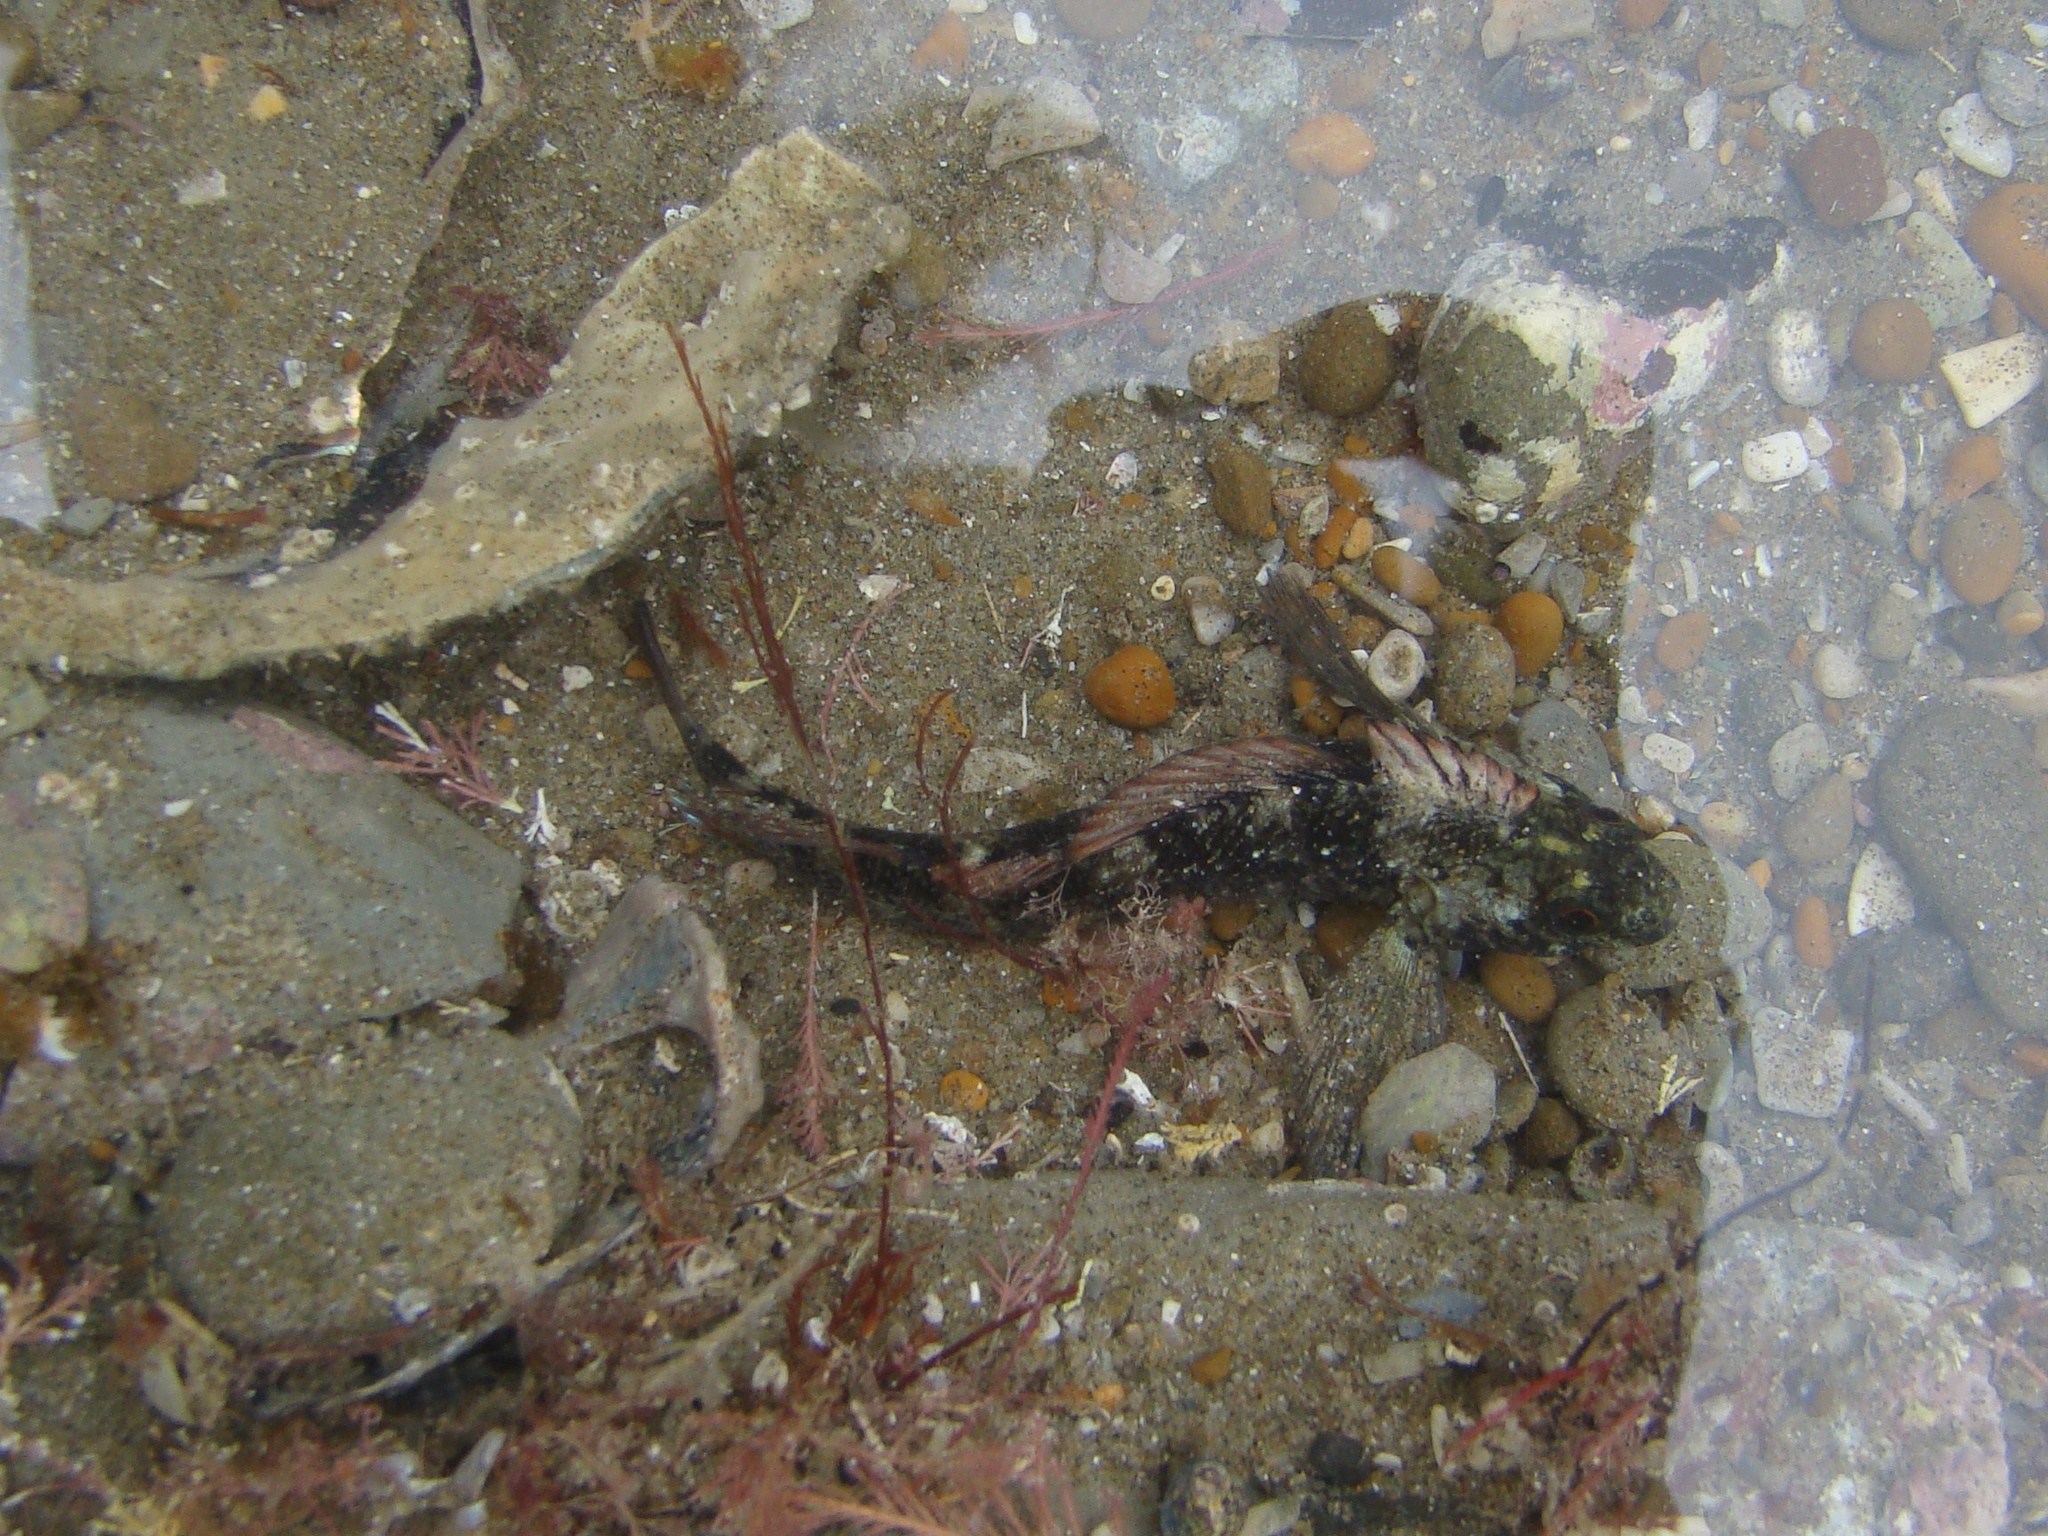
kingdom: Animalia
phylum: Chordata
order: Perciformes
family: Tripterygiidae
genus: Forsterygion
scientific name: Forsterygion lapillum
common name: Common triplefin
